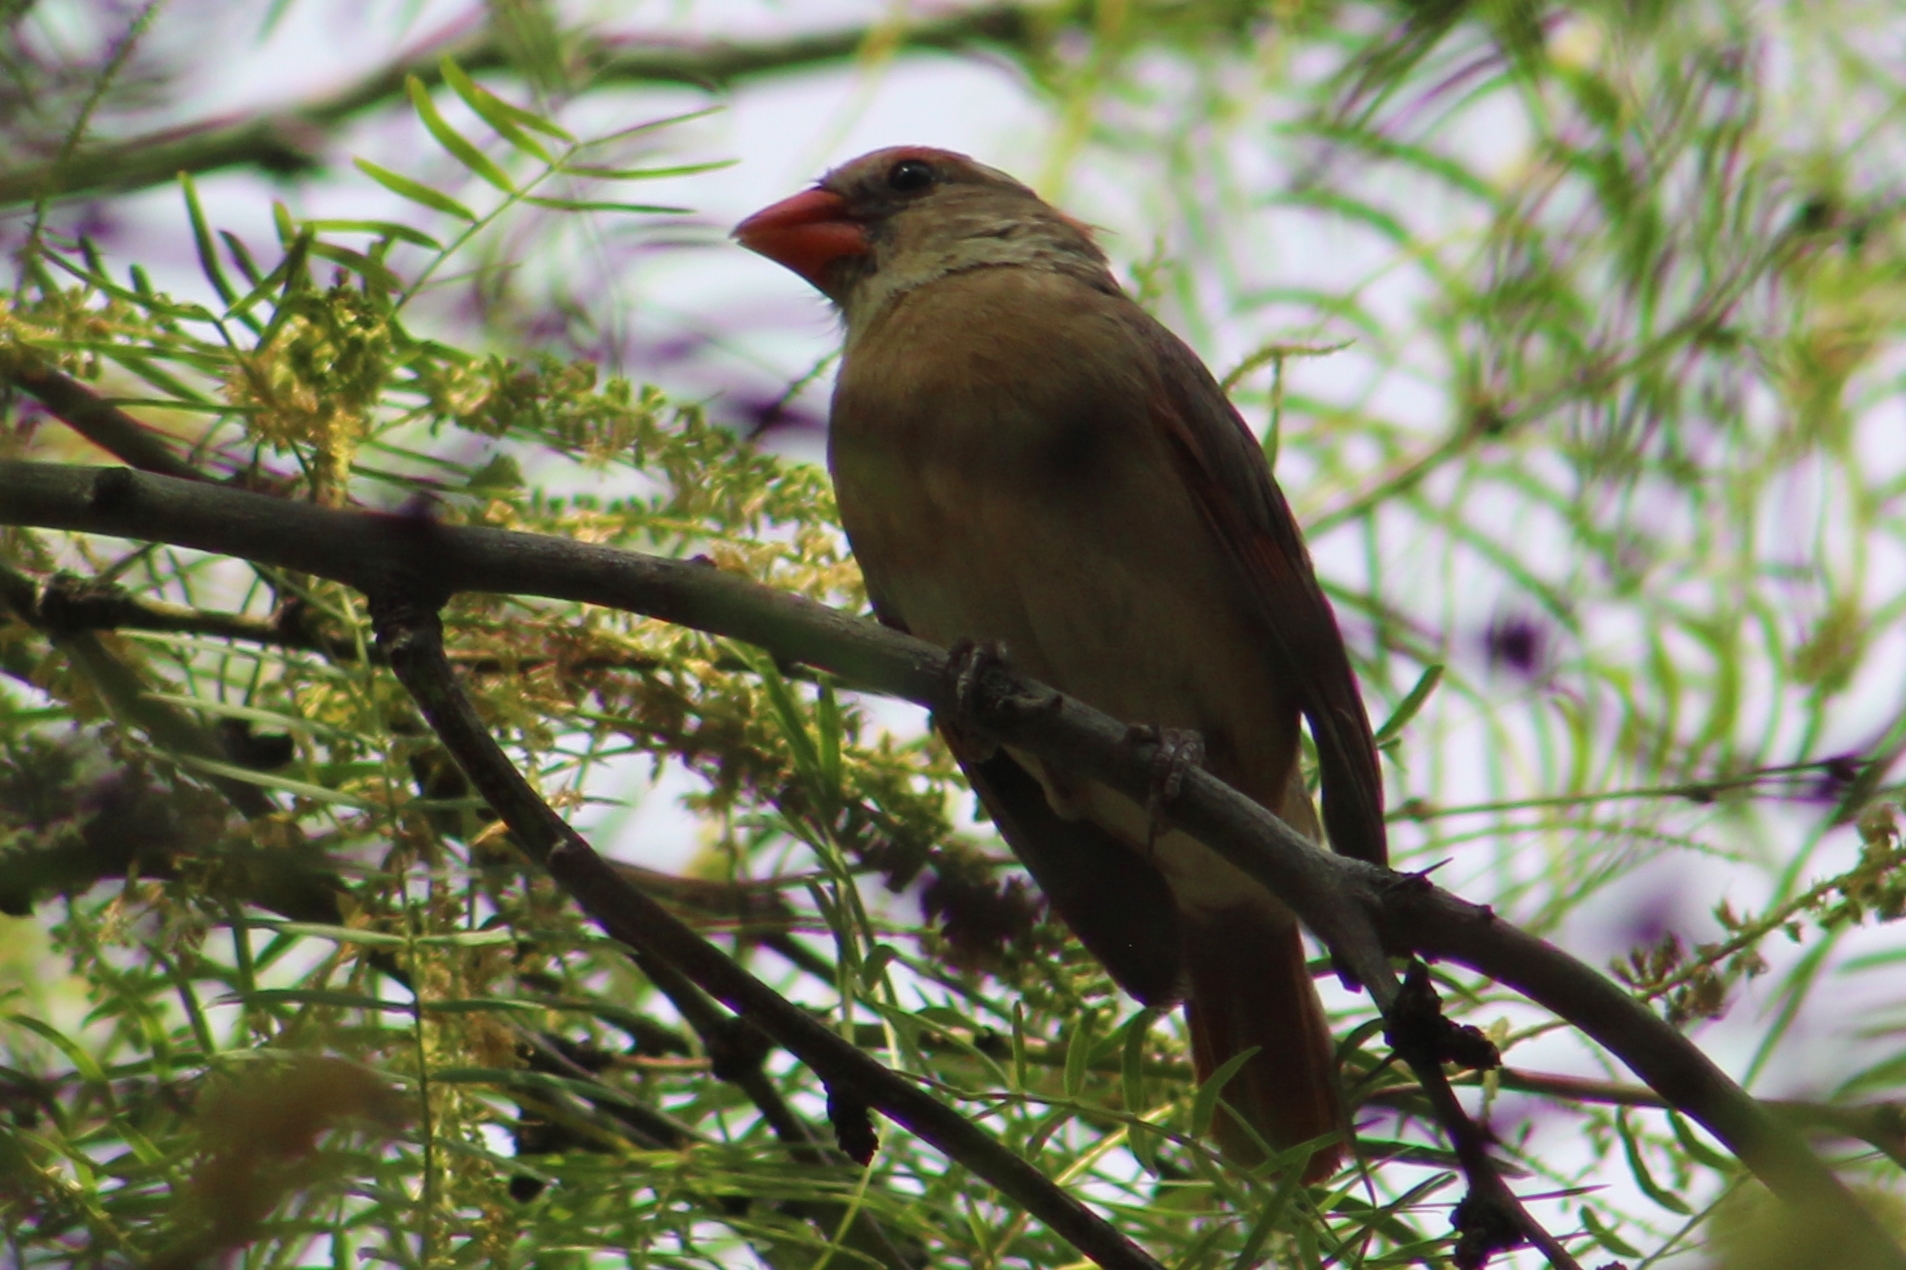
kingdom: Animalia
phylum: Chordata
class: Aves
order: Passeriformes
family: Cardinalidae
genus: Cardinalis
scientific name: Cardinalis cardinalis
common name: Northern cardinal
